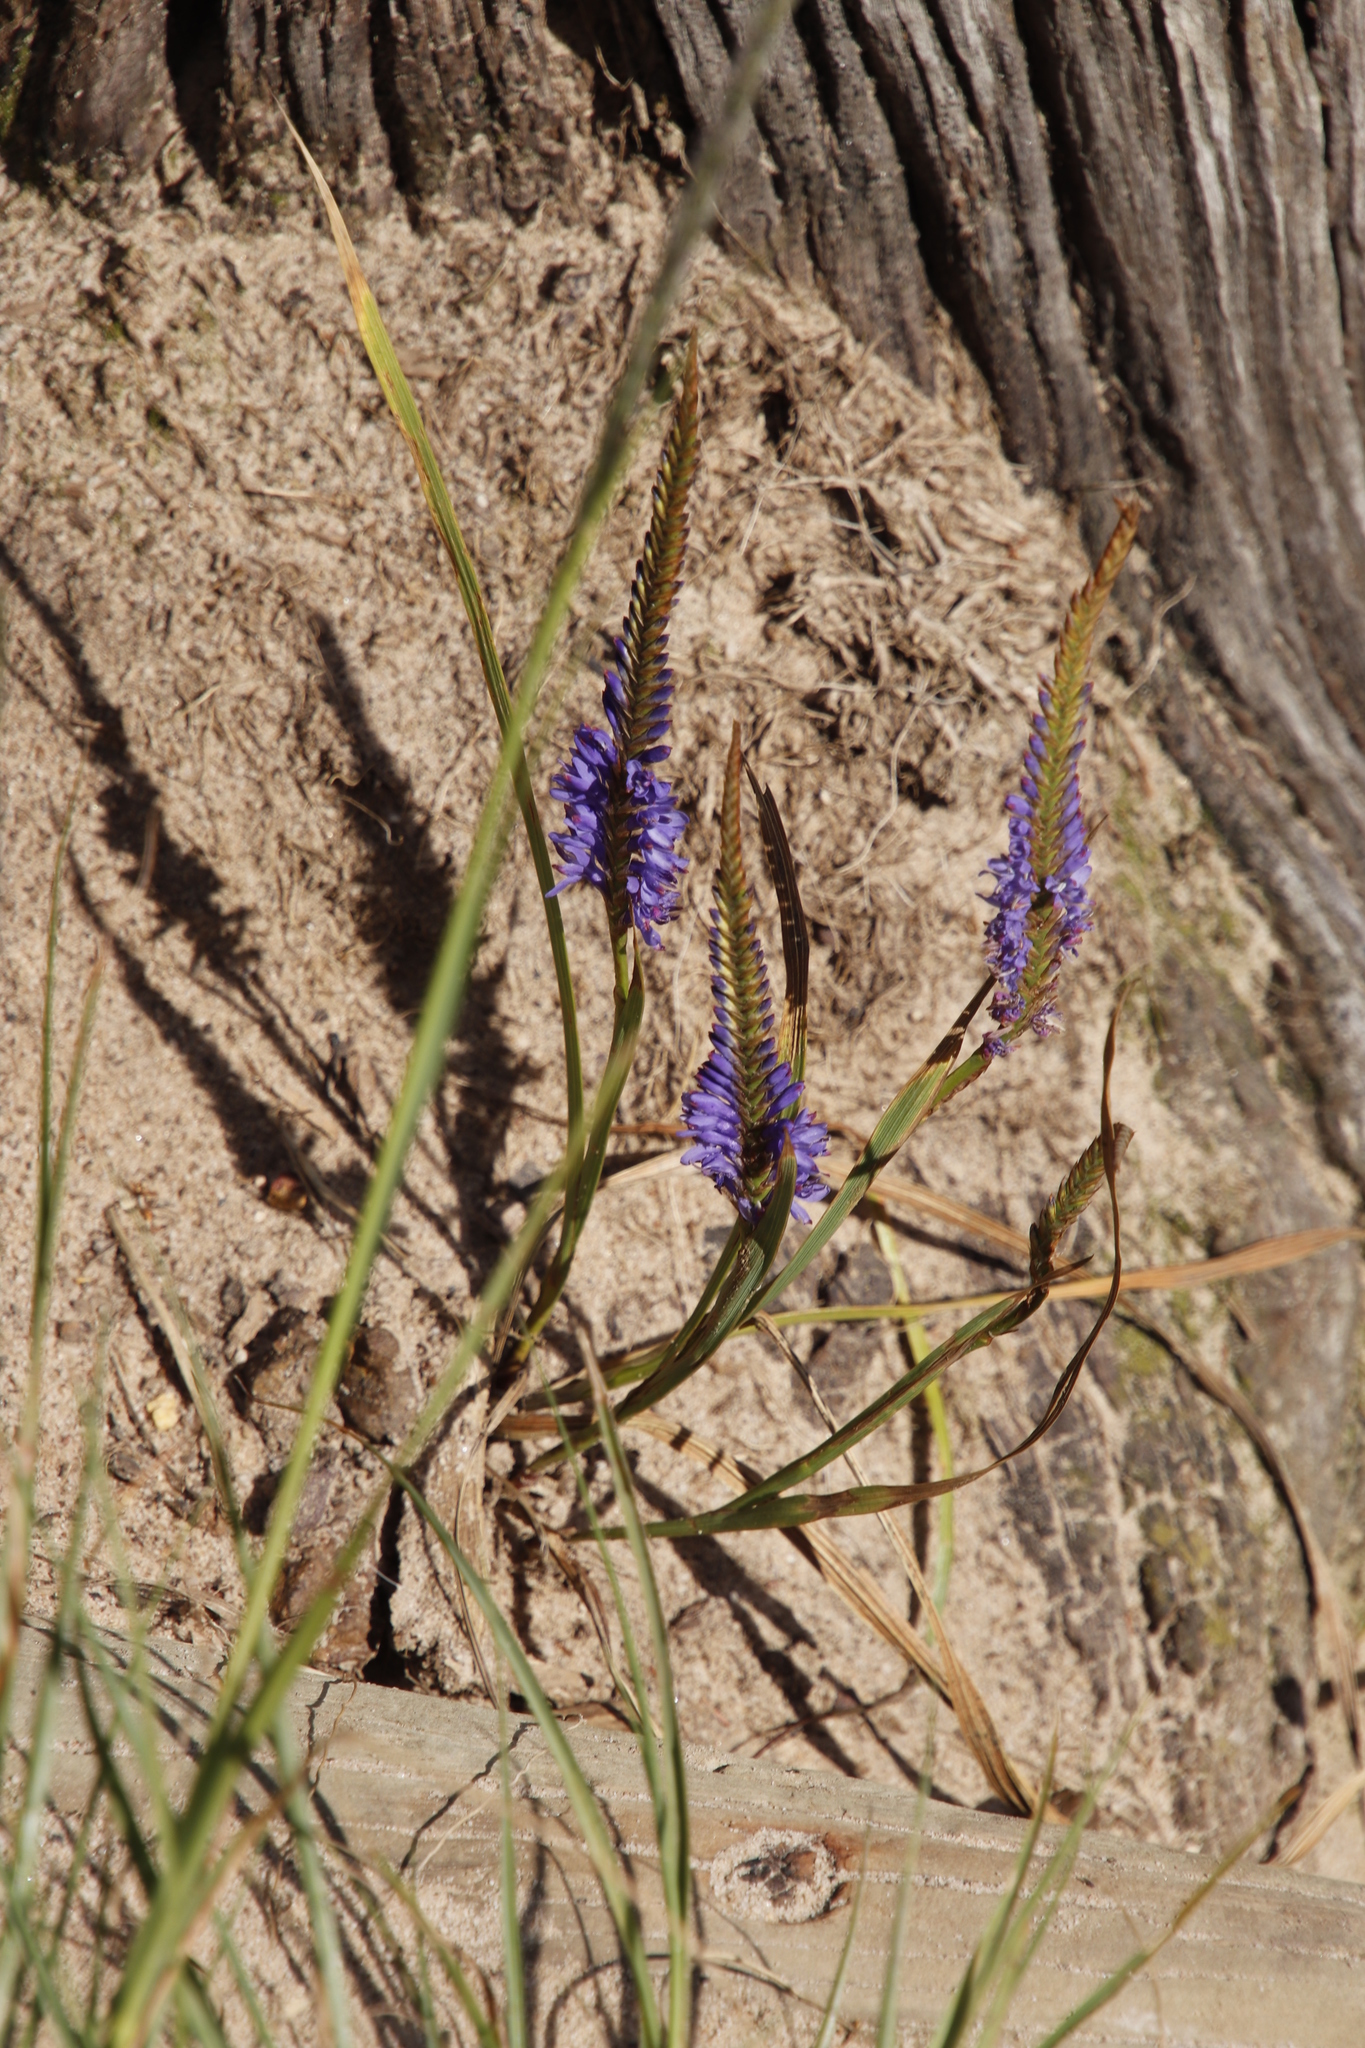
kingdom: Plantae
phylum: Tracheophyta
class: Liliopsida
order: Asparagales
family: Iridaceae
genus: Micranthus
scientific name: Micranthus alopecuroides
